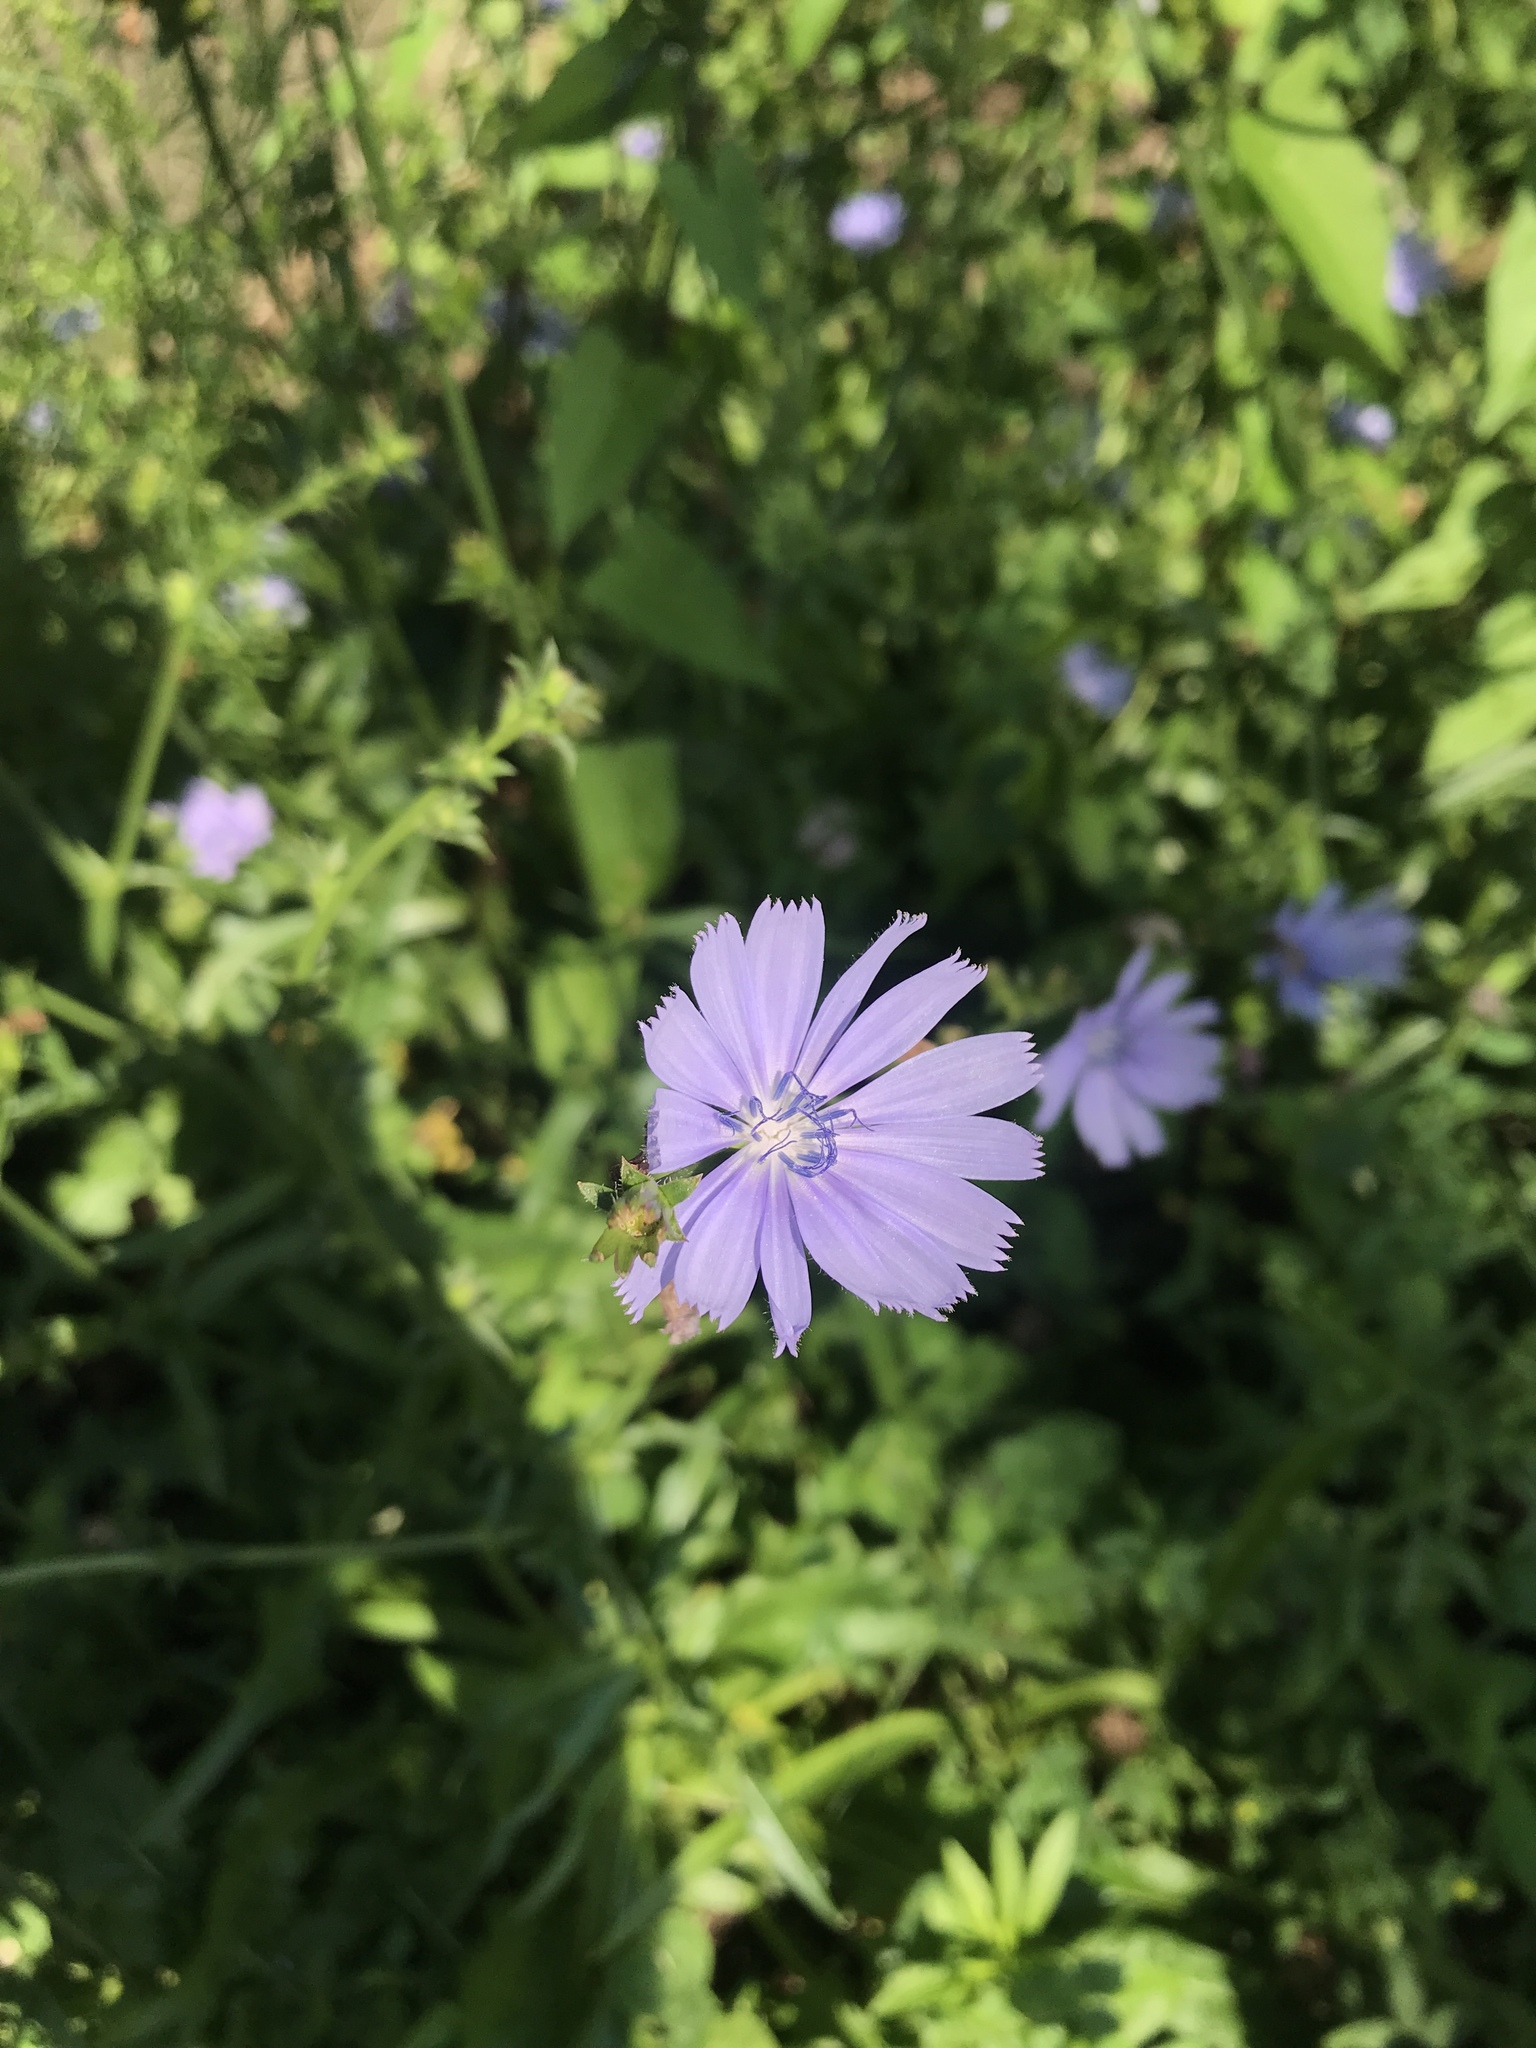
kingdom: Plantae
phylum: Tracheophyta
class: Magnoliopsida
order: Asterales
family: Asteraceae
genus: Cichorium
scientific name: Cichorium intybus
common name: Chicory
